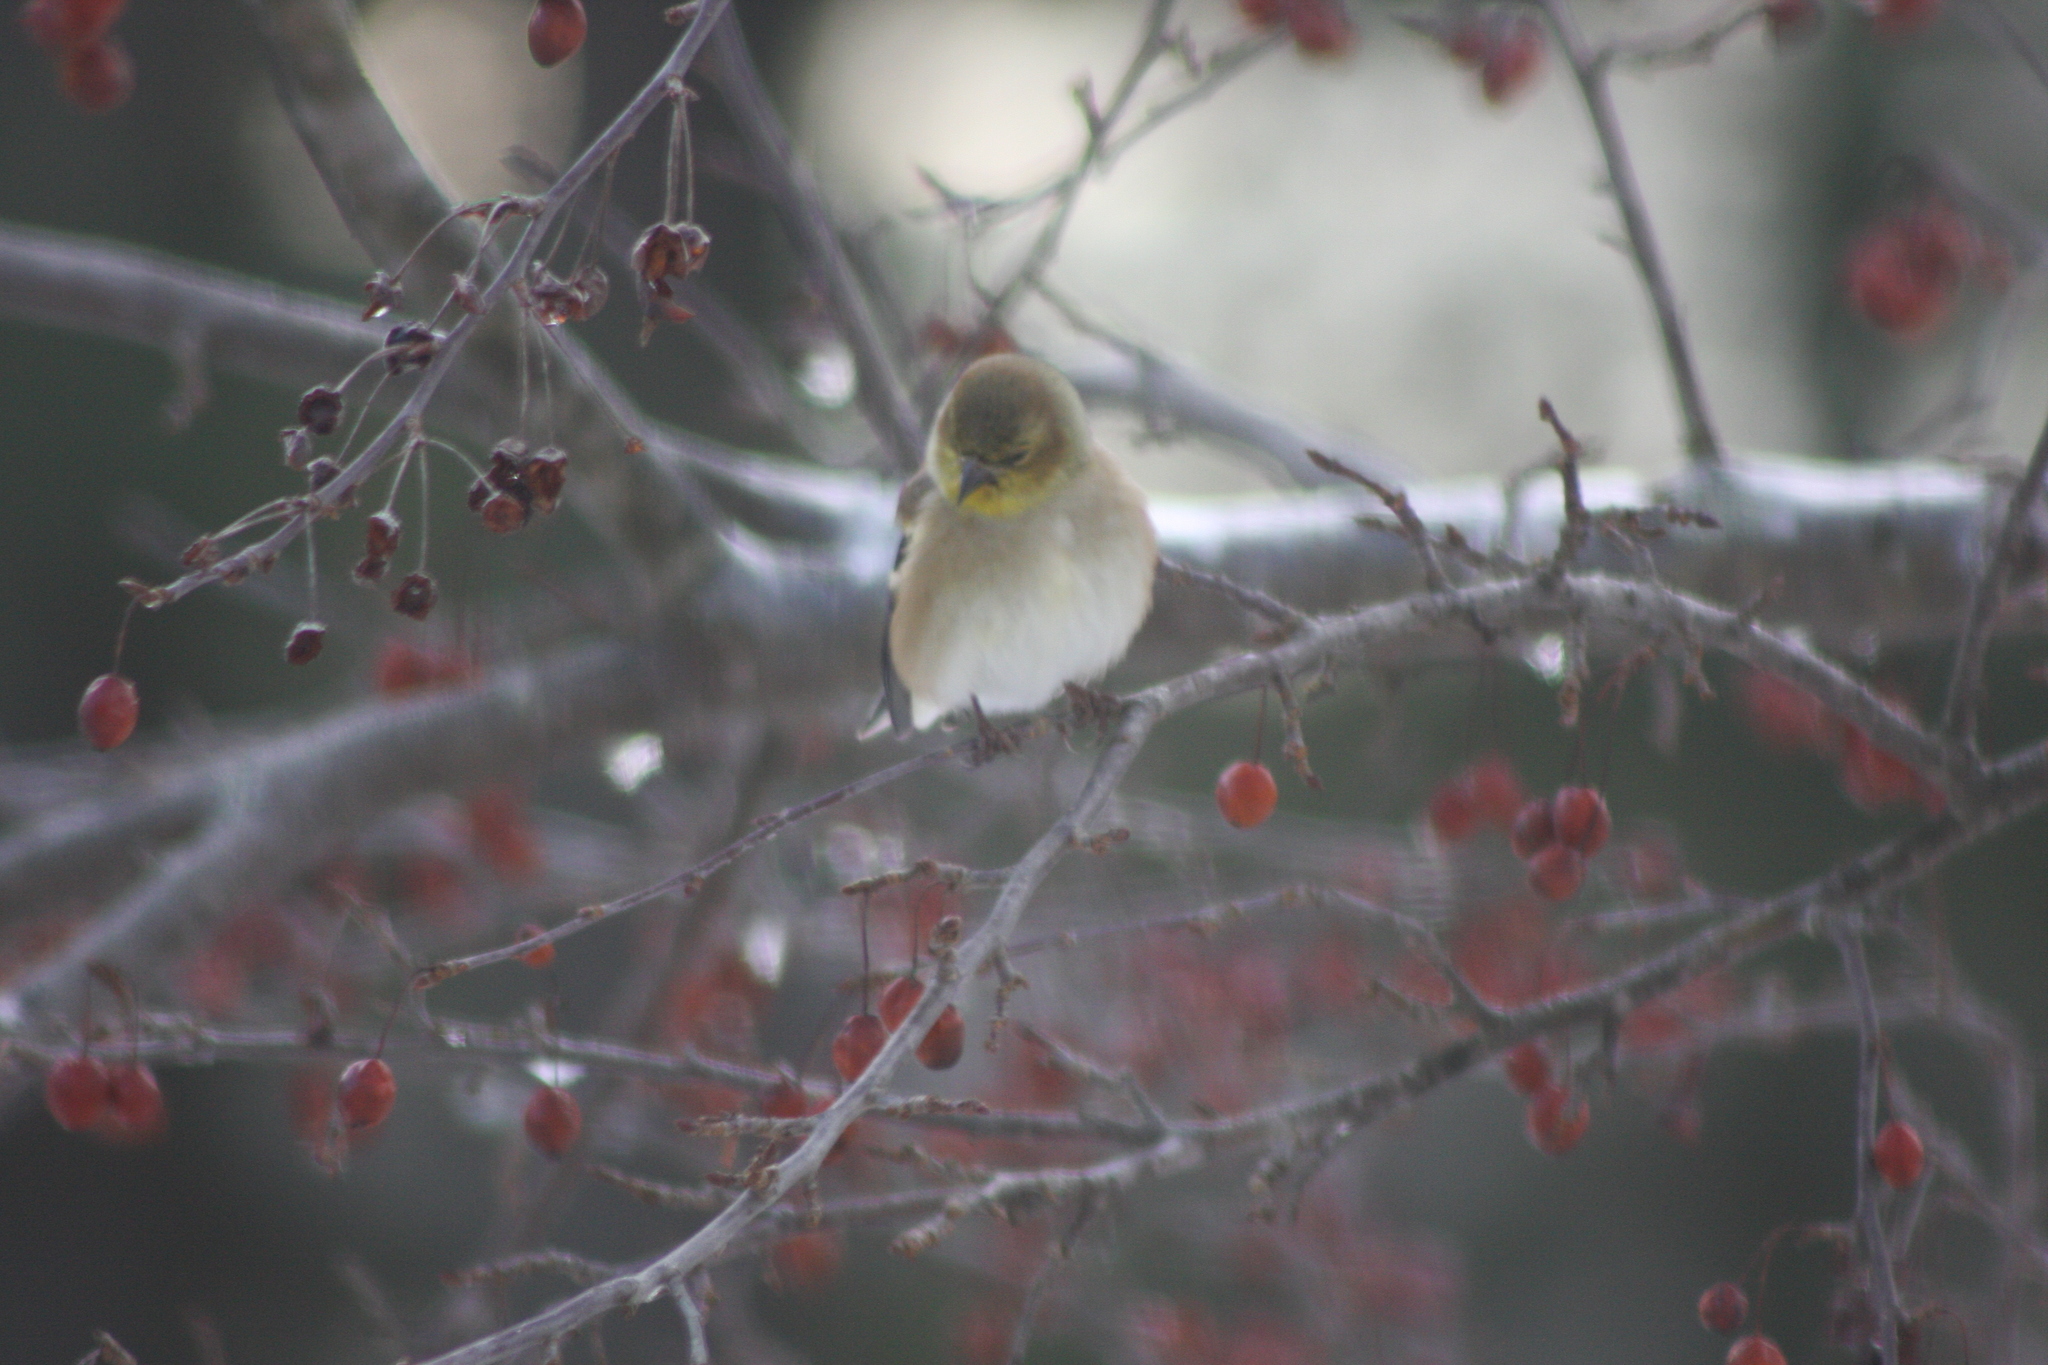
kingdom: Animalia
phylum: Chordata
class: Aves
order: Passeriformes
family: Fringillidae
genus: Spinus
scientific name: Spinus tristis
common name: American goldfinch
